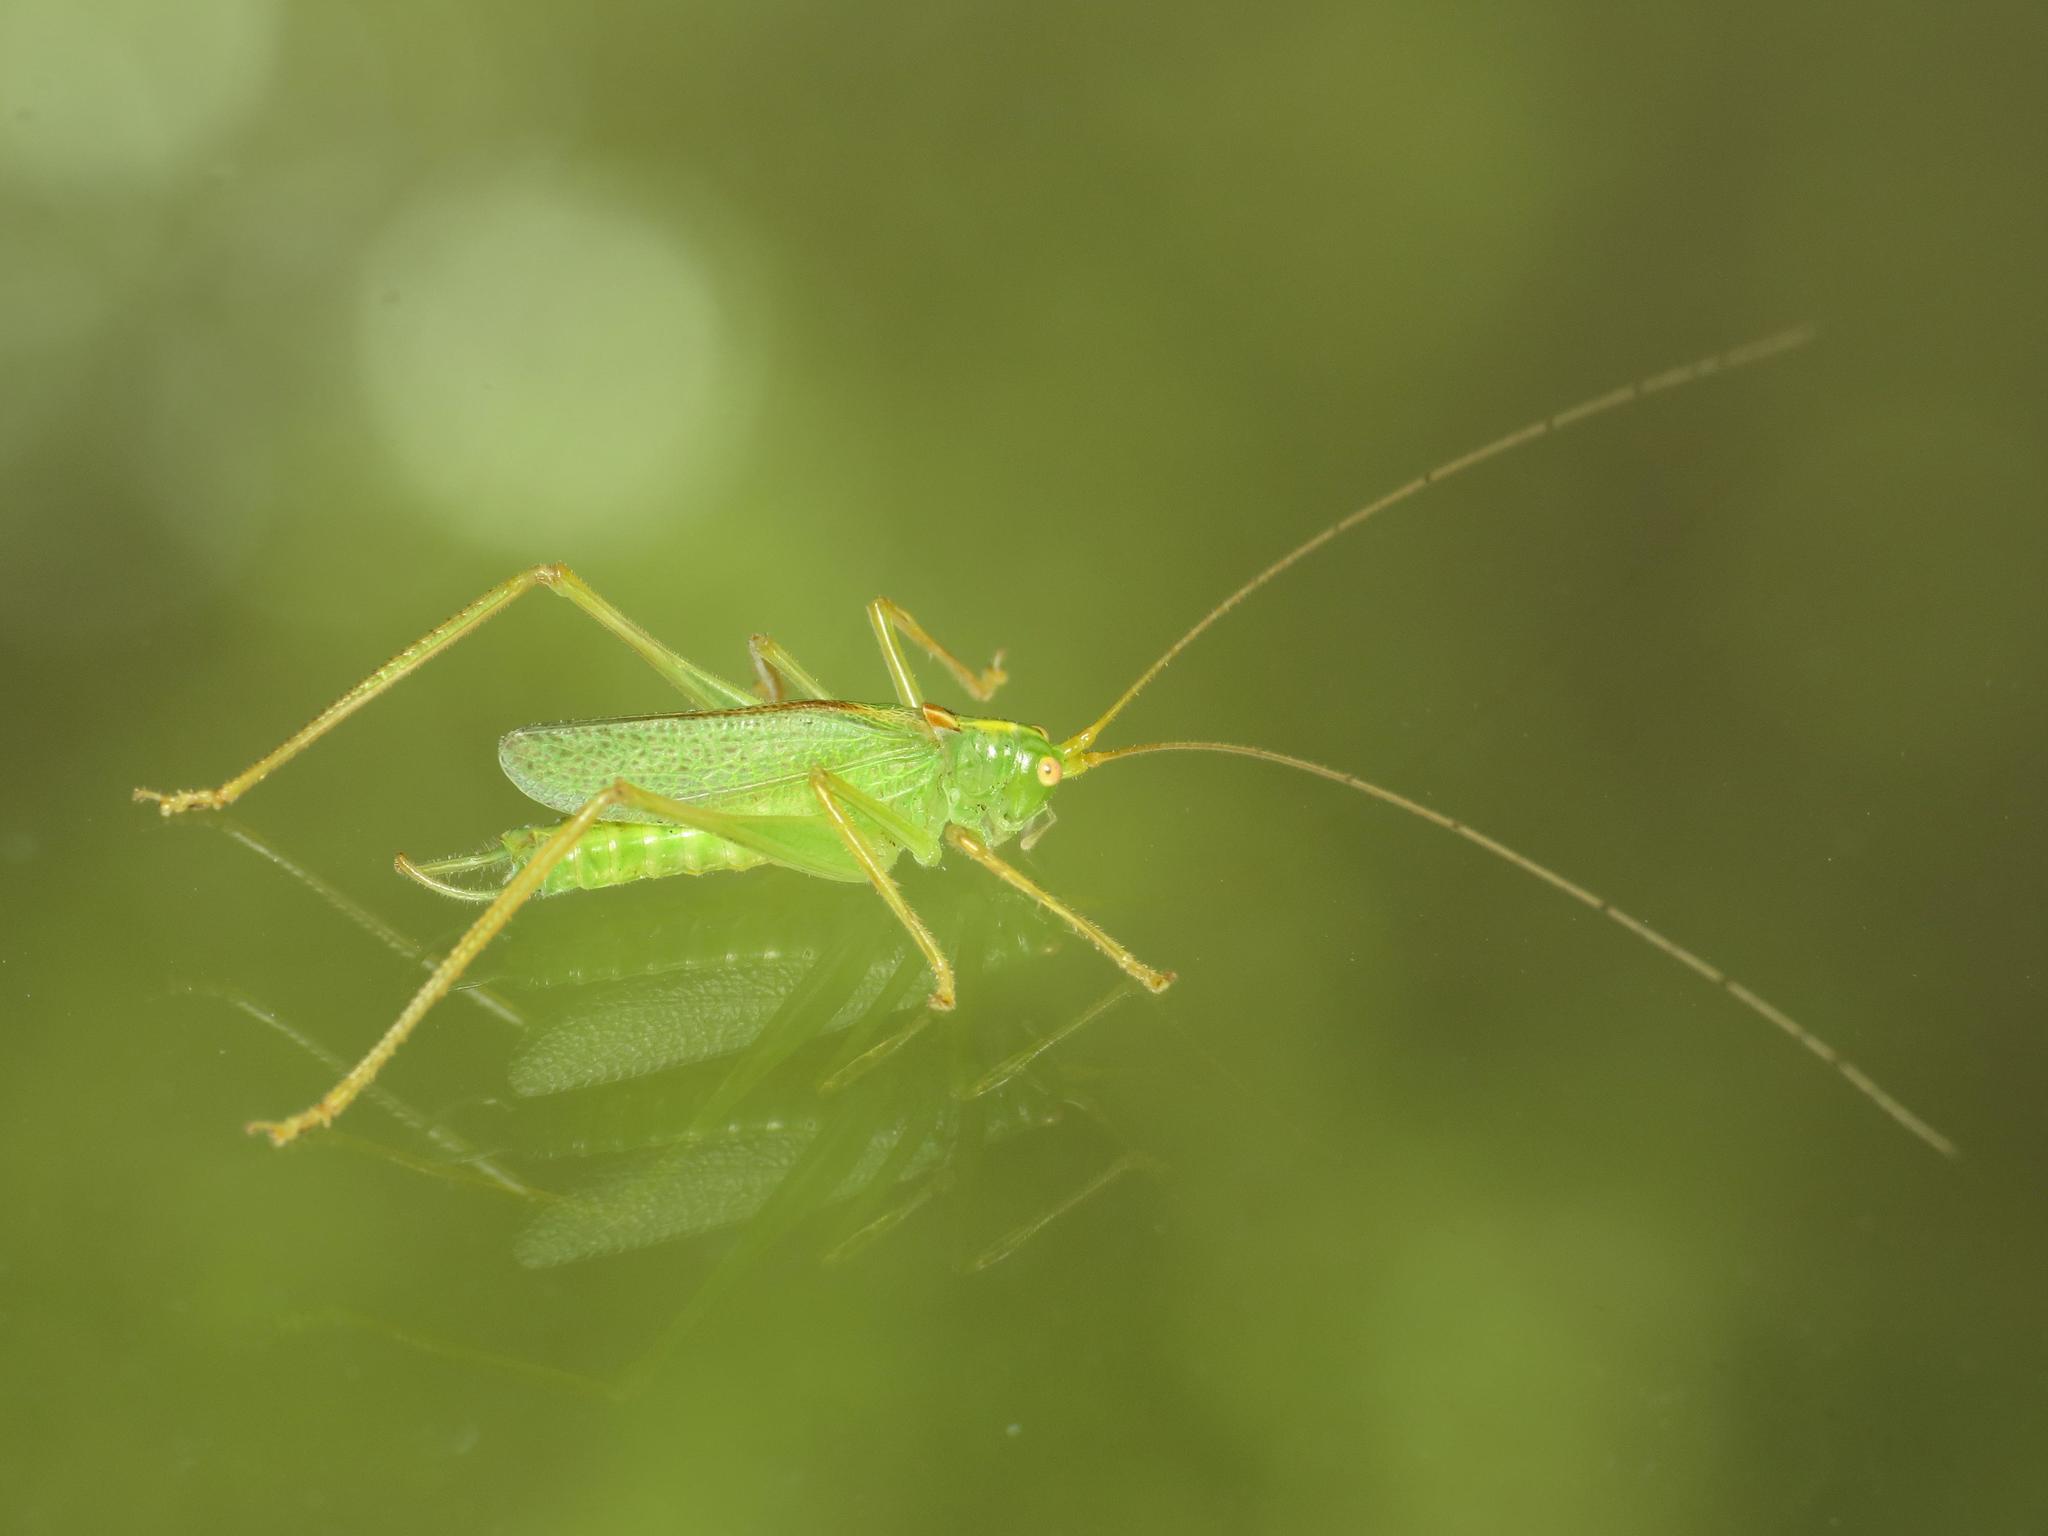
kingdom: Animalia
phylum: Arthropoda
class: Insecta
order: Orthoptera
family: Tettigoniidae
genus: Meconema
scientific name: Meconema thalassinum
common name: Oak bush-cricket
